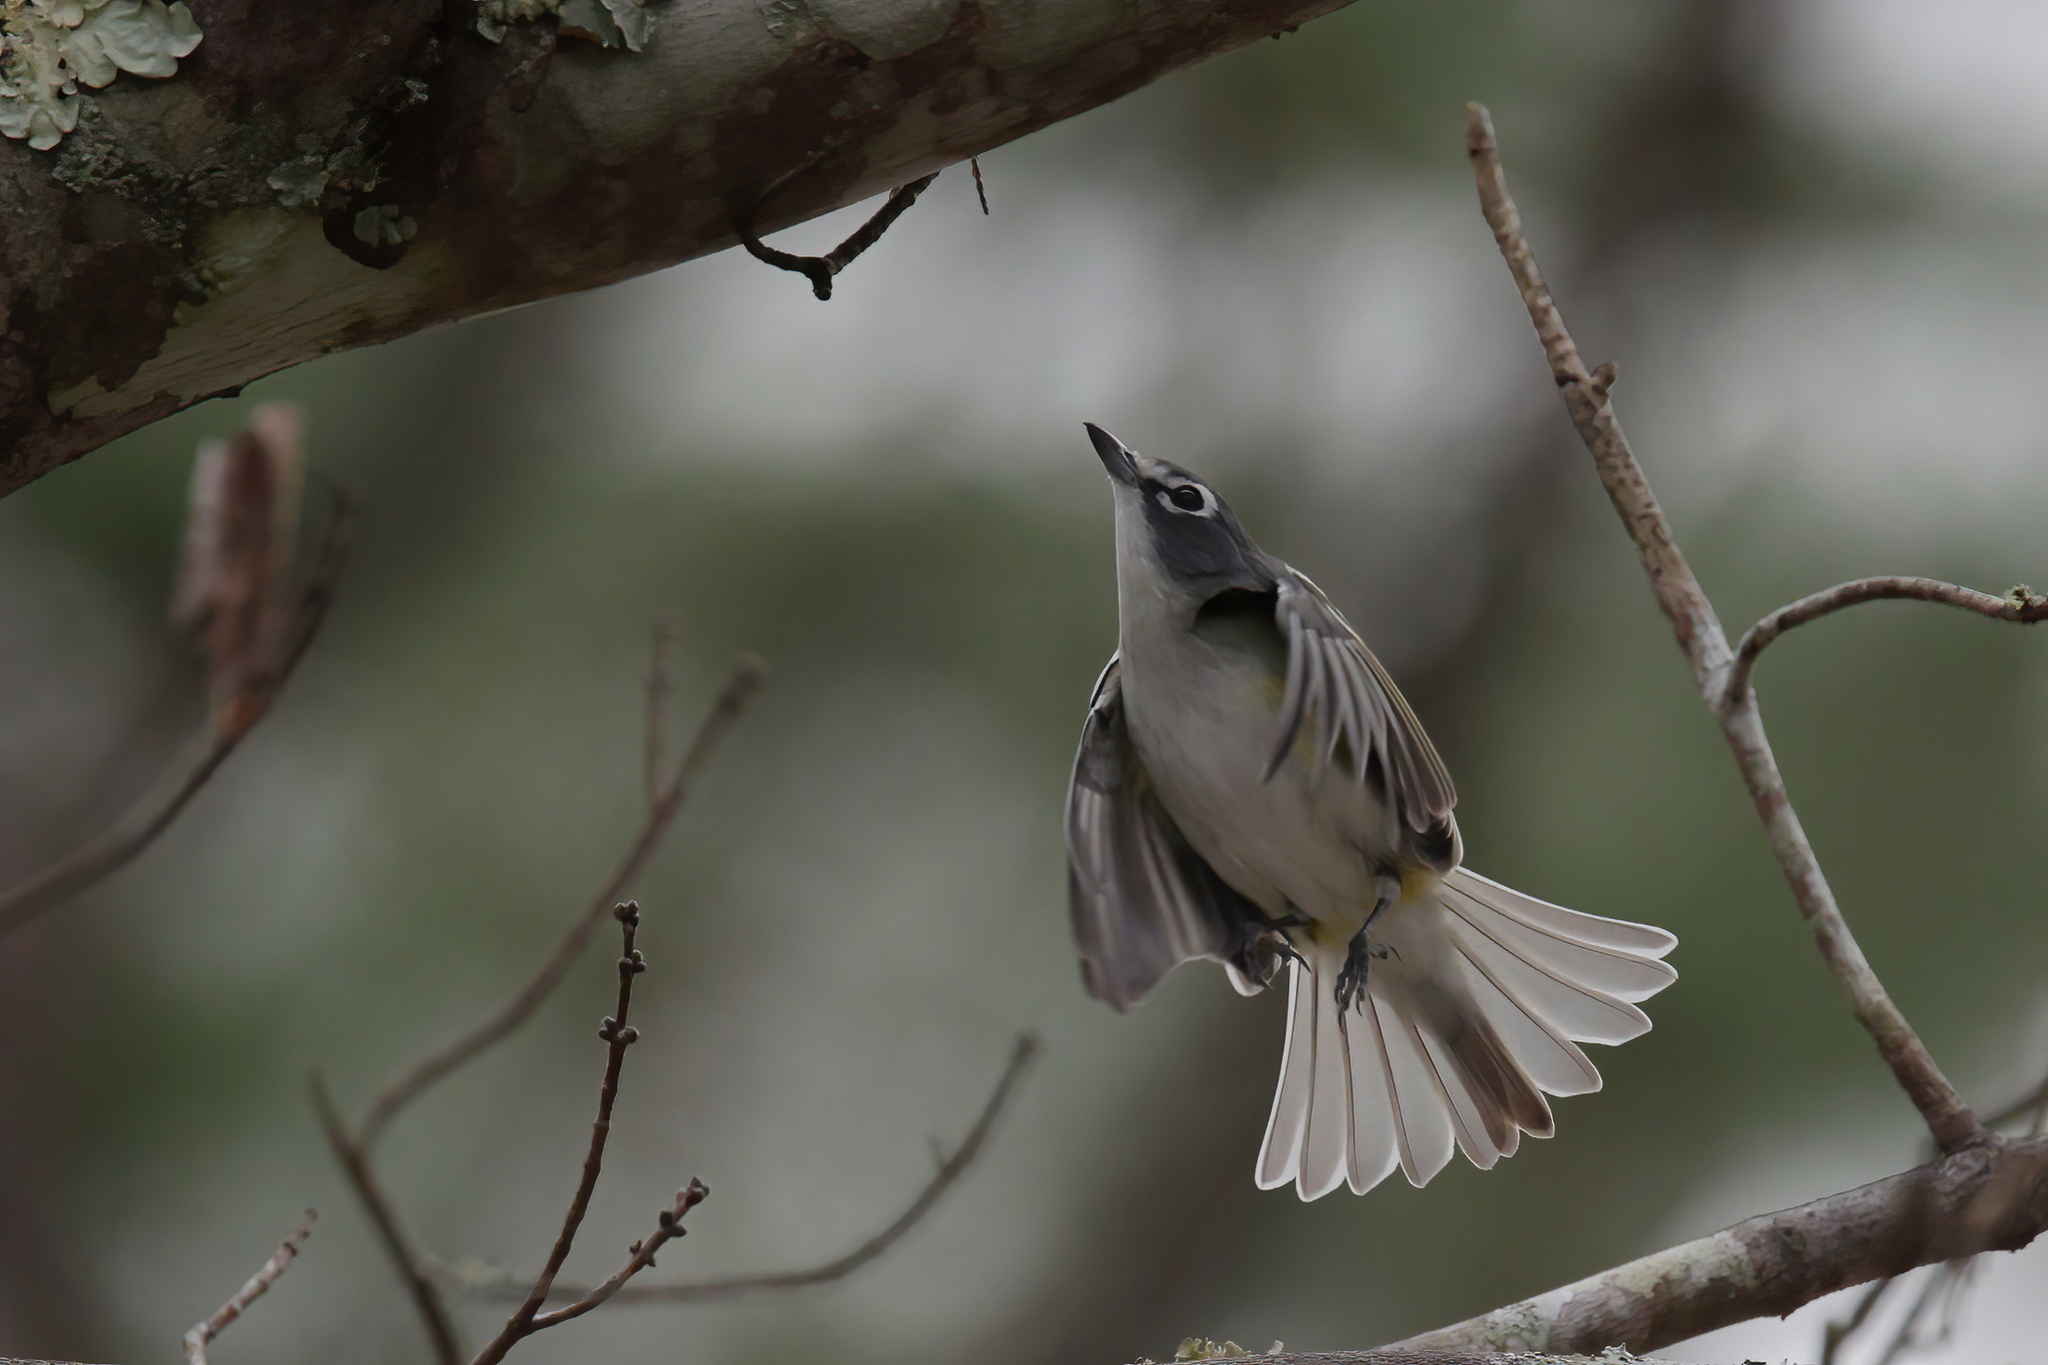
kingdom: Animalia
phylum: Chordata
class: Aves
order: Passeriformes
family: Vireonidae
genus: Vireo
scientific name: Vireo solitarius
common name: Blue-headed vireo
